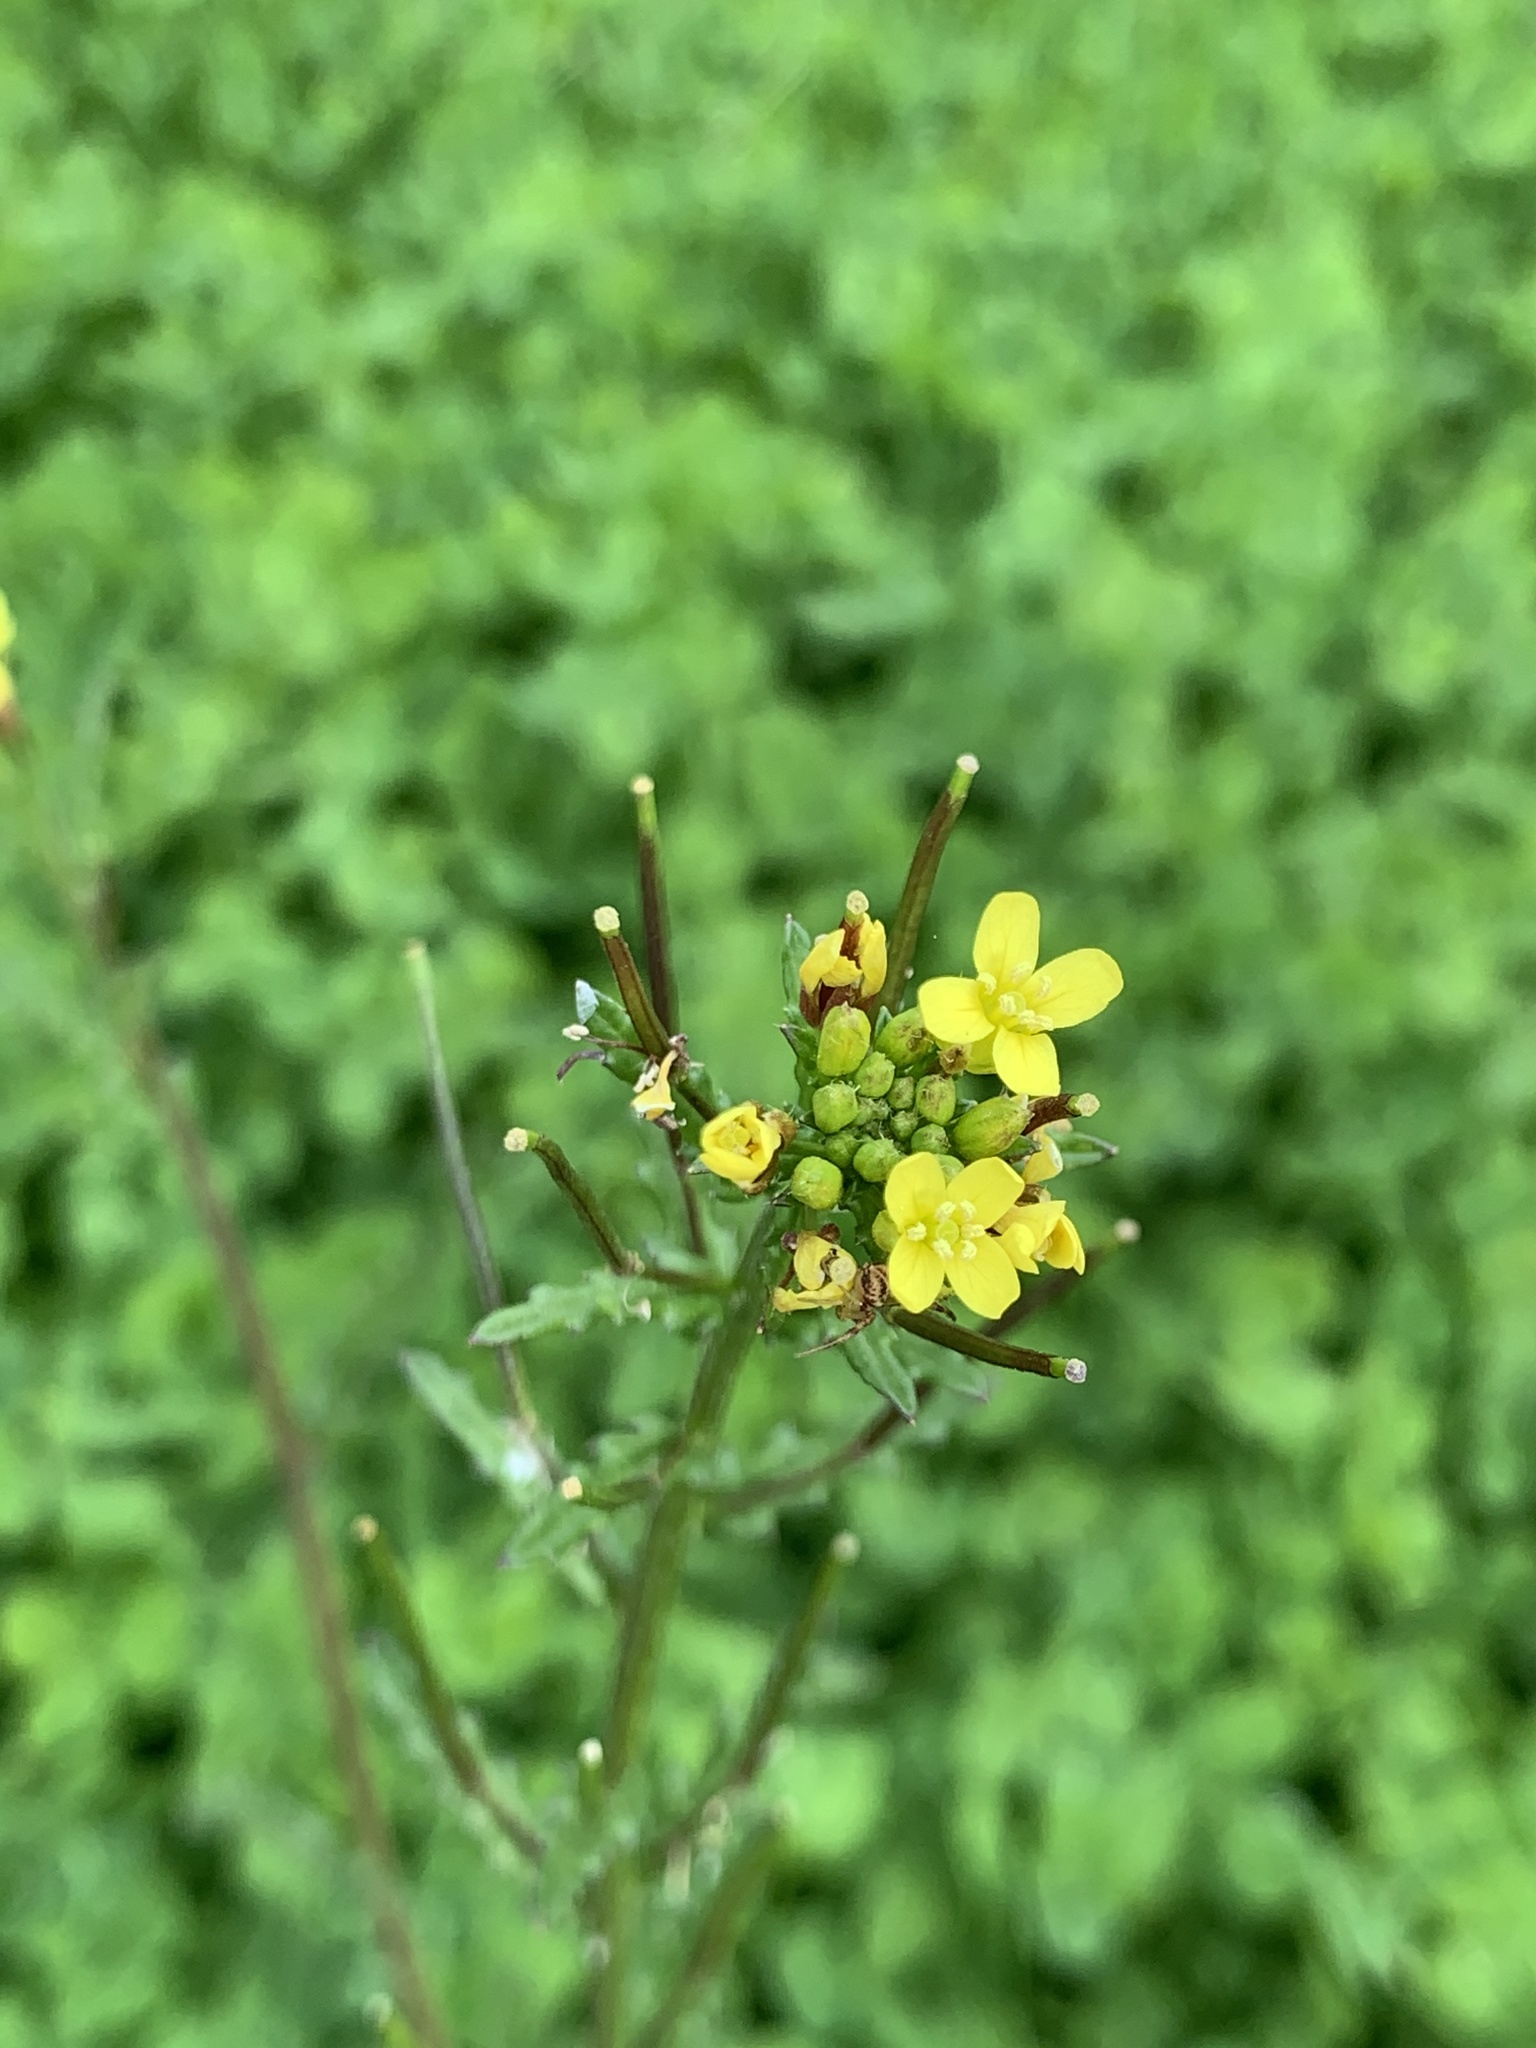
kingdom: Plantae
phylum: Tracheophyta
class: Magnoliopsida
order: Brassicales
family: Brassicaceae
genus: Sisymbrium
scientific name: Sisymbrium irio
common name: London rocket
